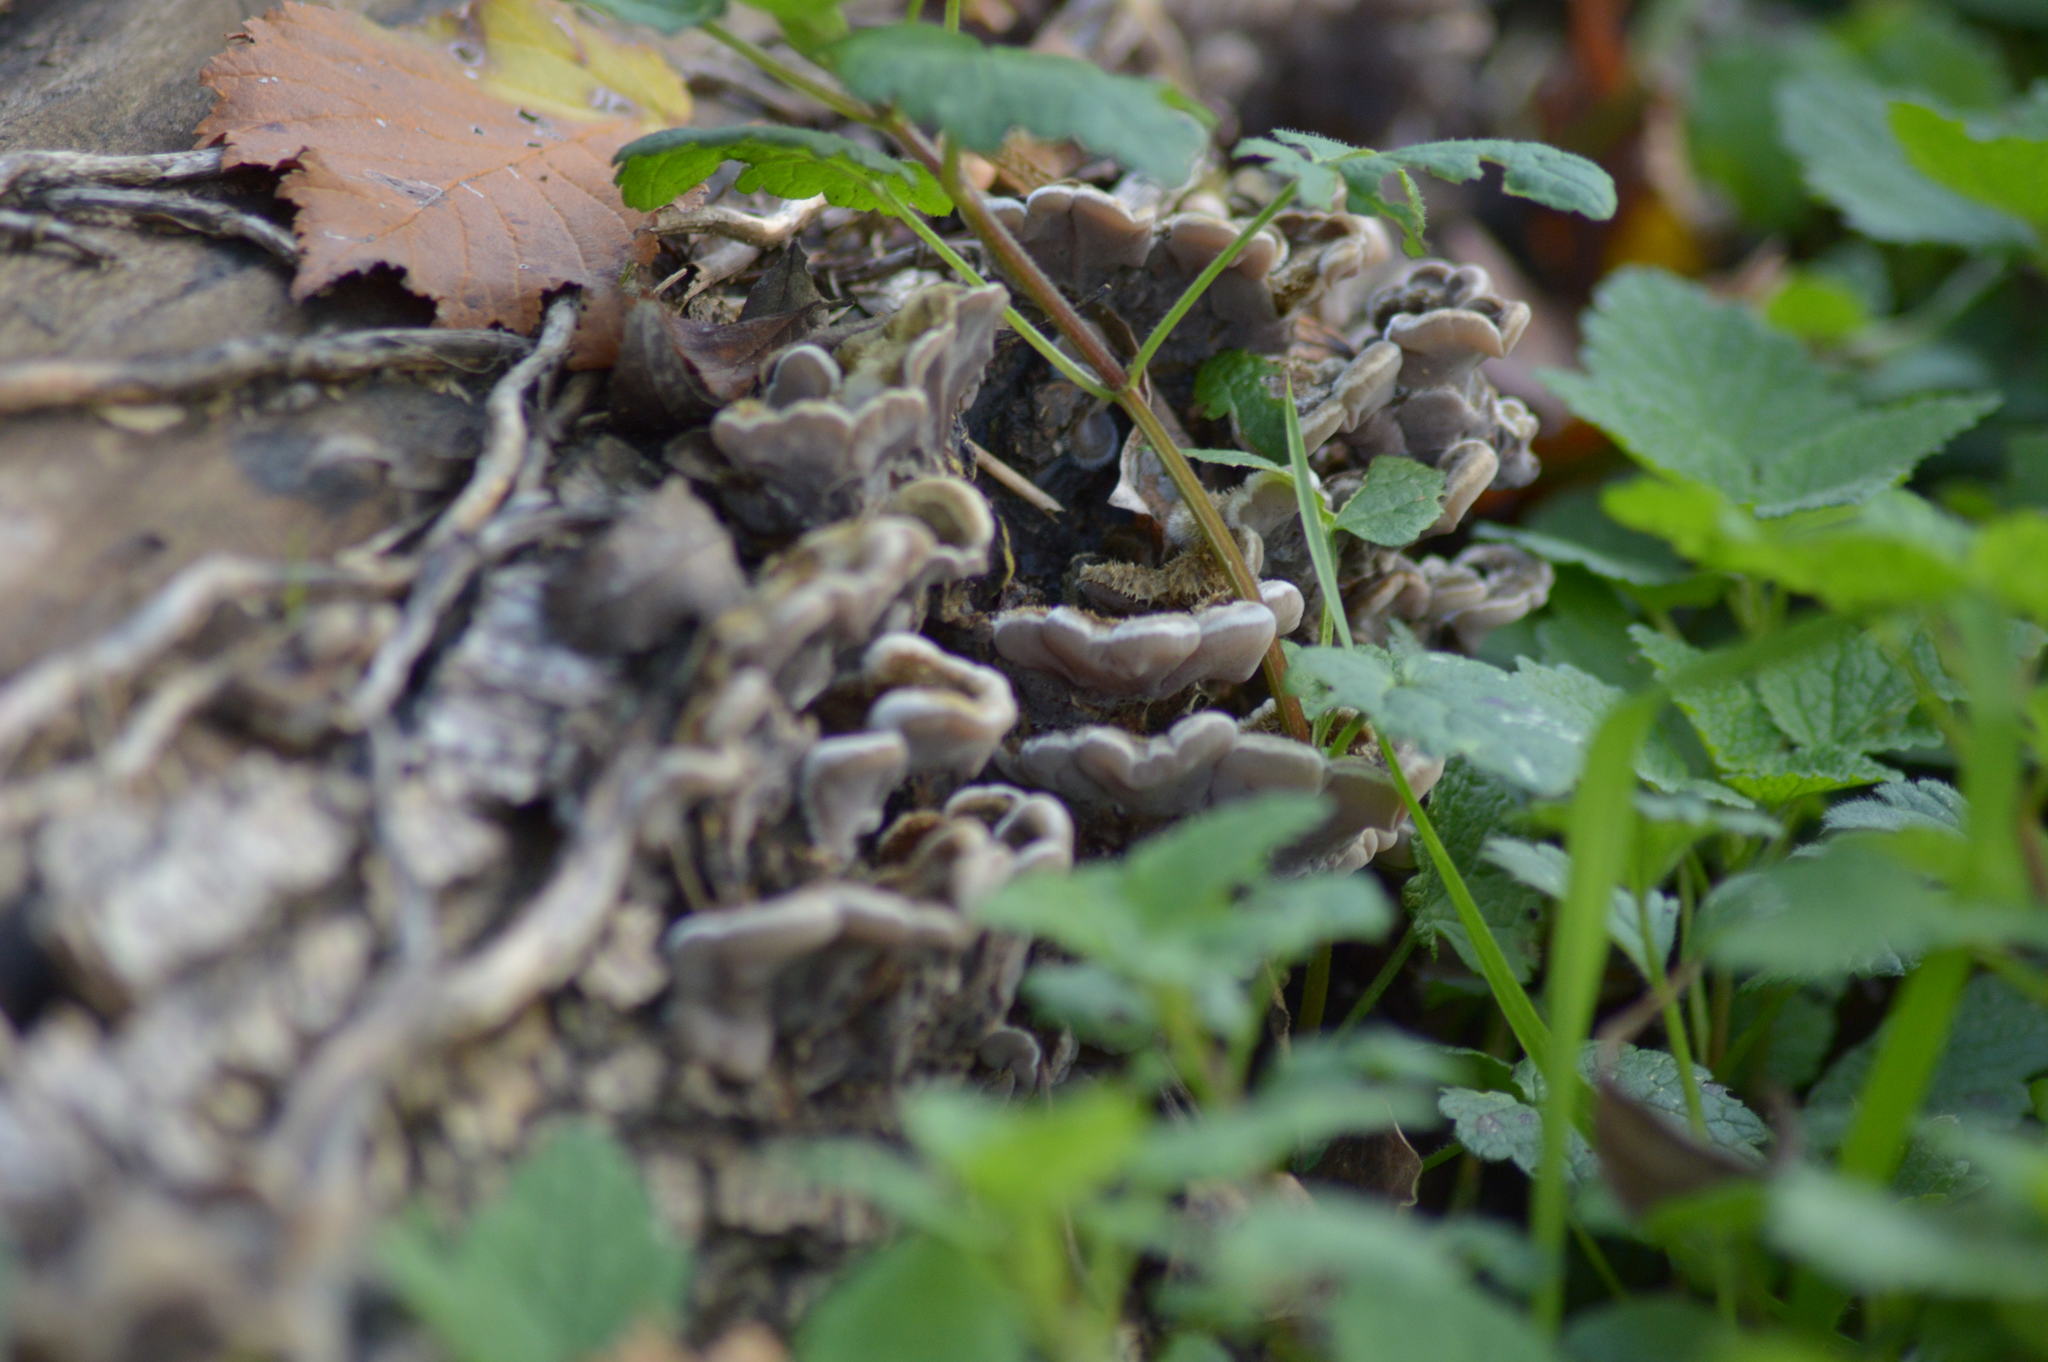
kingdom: Fungi
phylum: Basidiomycota
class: Agaricomycetes
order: Auriculariales
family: Auriculariaceae
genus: Auricularia
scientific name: Auricularia mesenterica
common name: Tripe fungus
